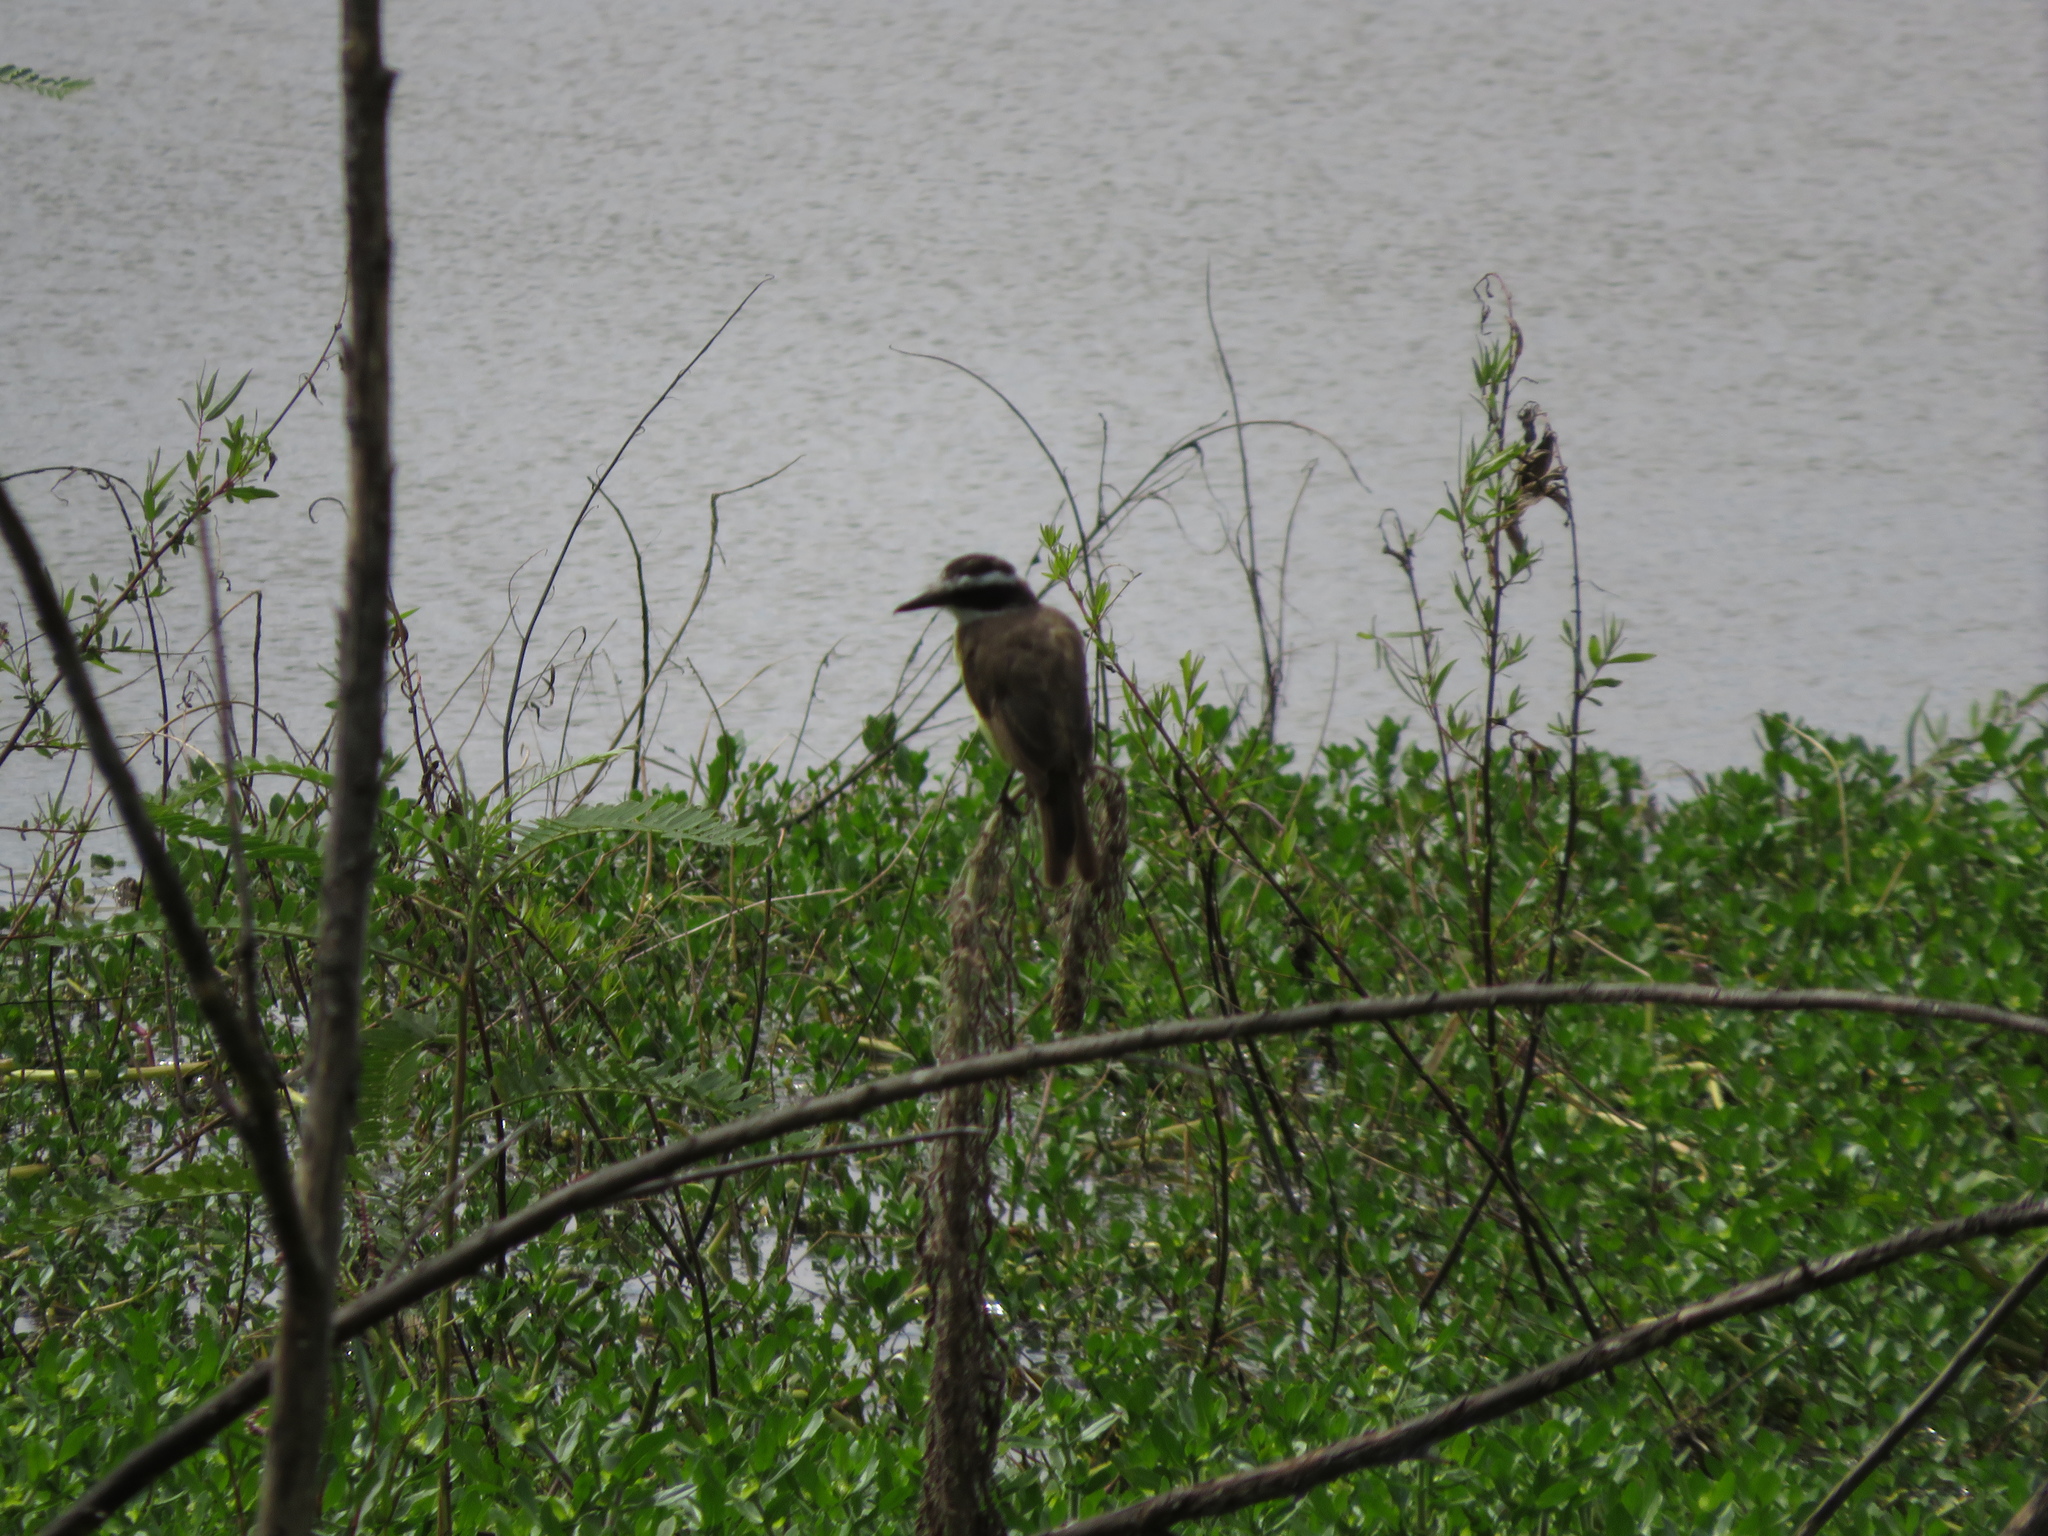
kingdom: Animalia
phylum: Chordata
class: Aves
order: Passeriformes
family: Tyrannidae
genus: Pitangus
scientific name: Pitangus sulphuratus
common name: Great kiskadee
